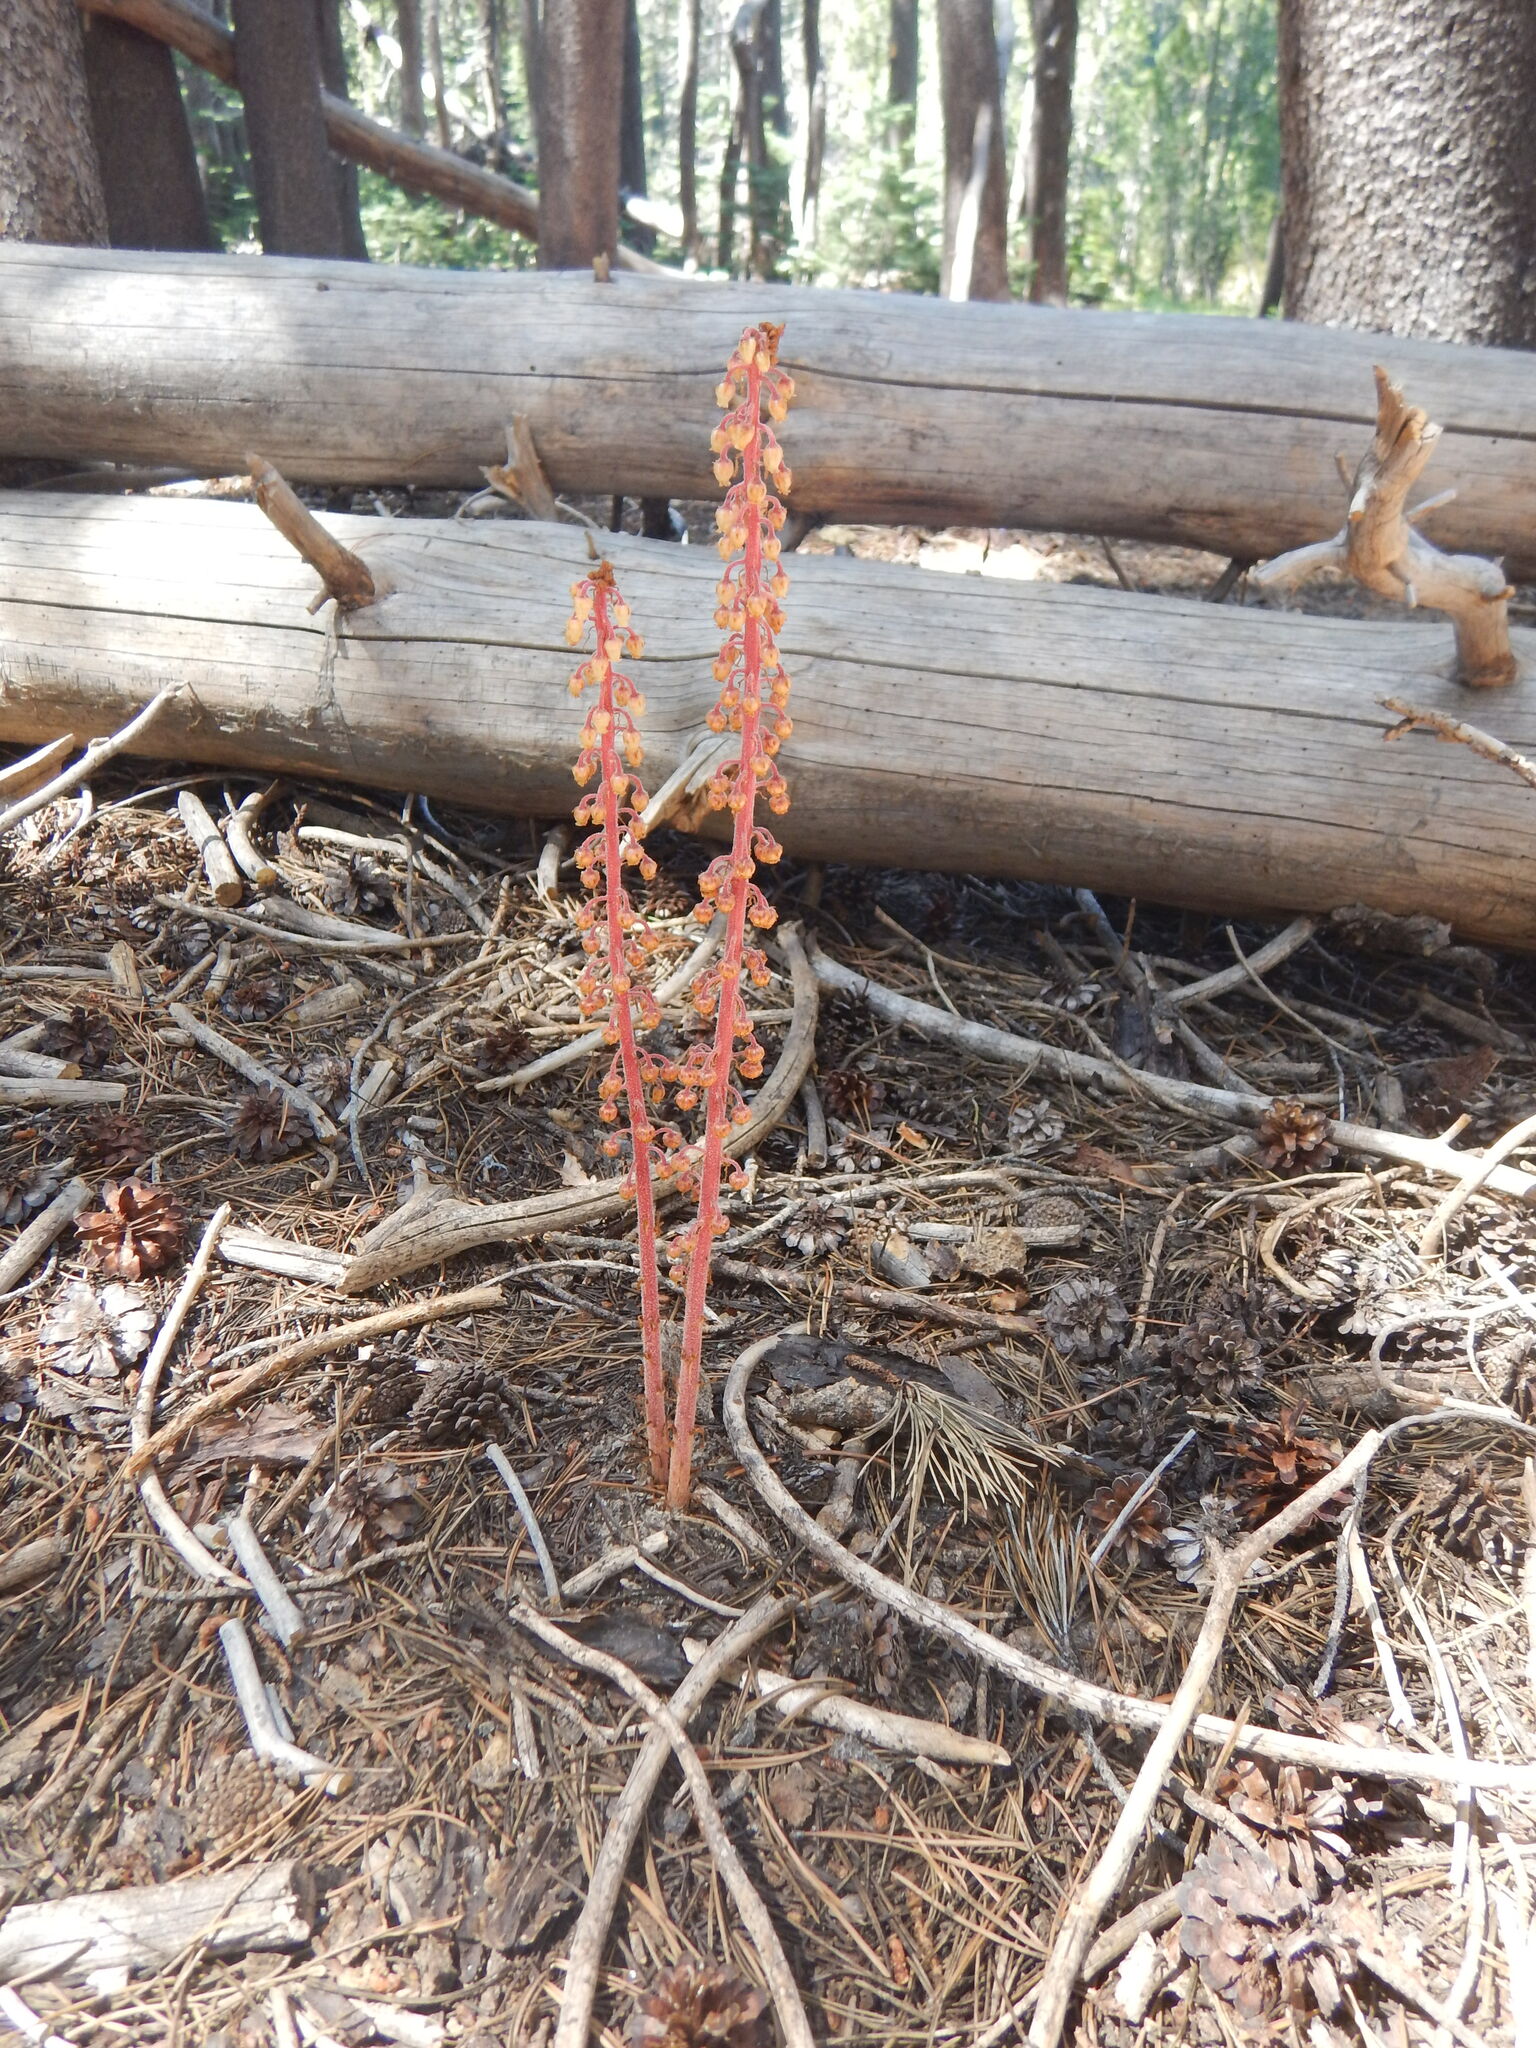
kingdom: Plantae
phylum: Tracheophyta
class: Magnoliopsida
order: Ericales
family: Ericaceae
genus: Pterospora
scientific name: Pterospora andromedea
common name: Giant bird's-nest
